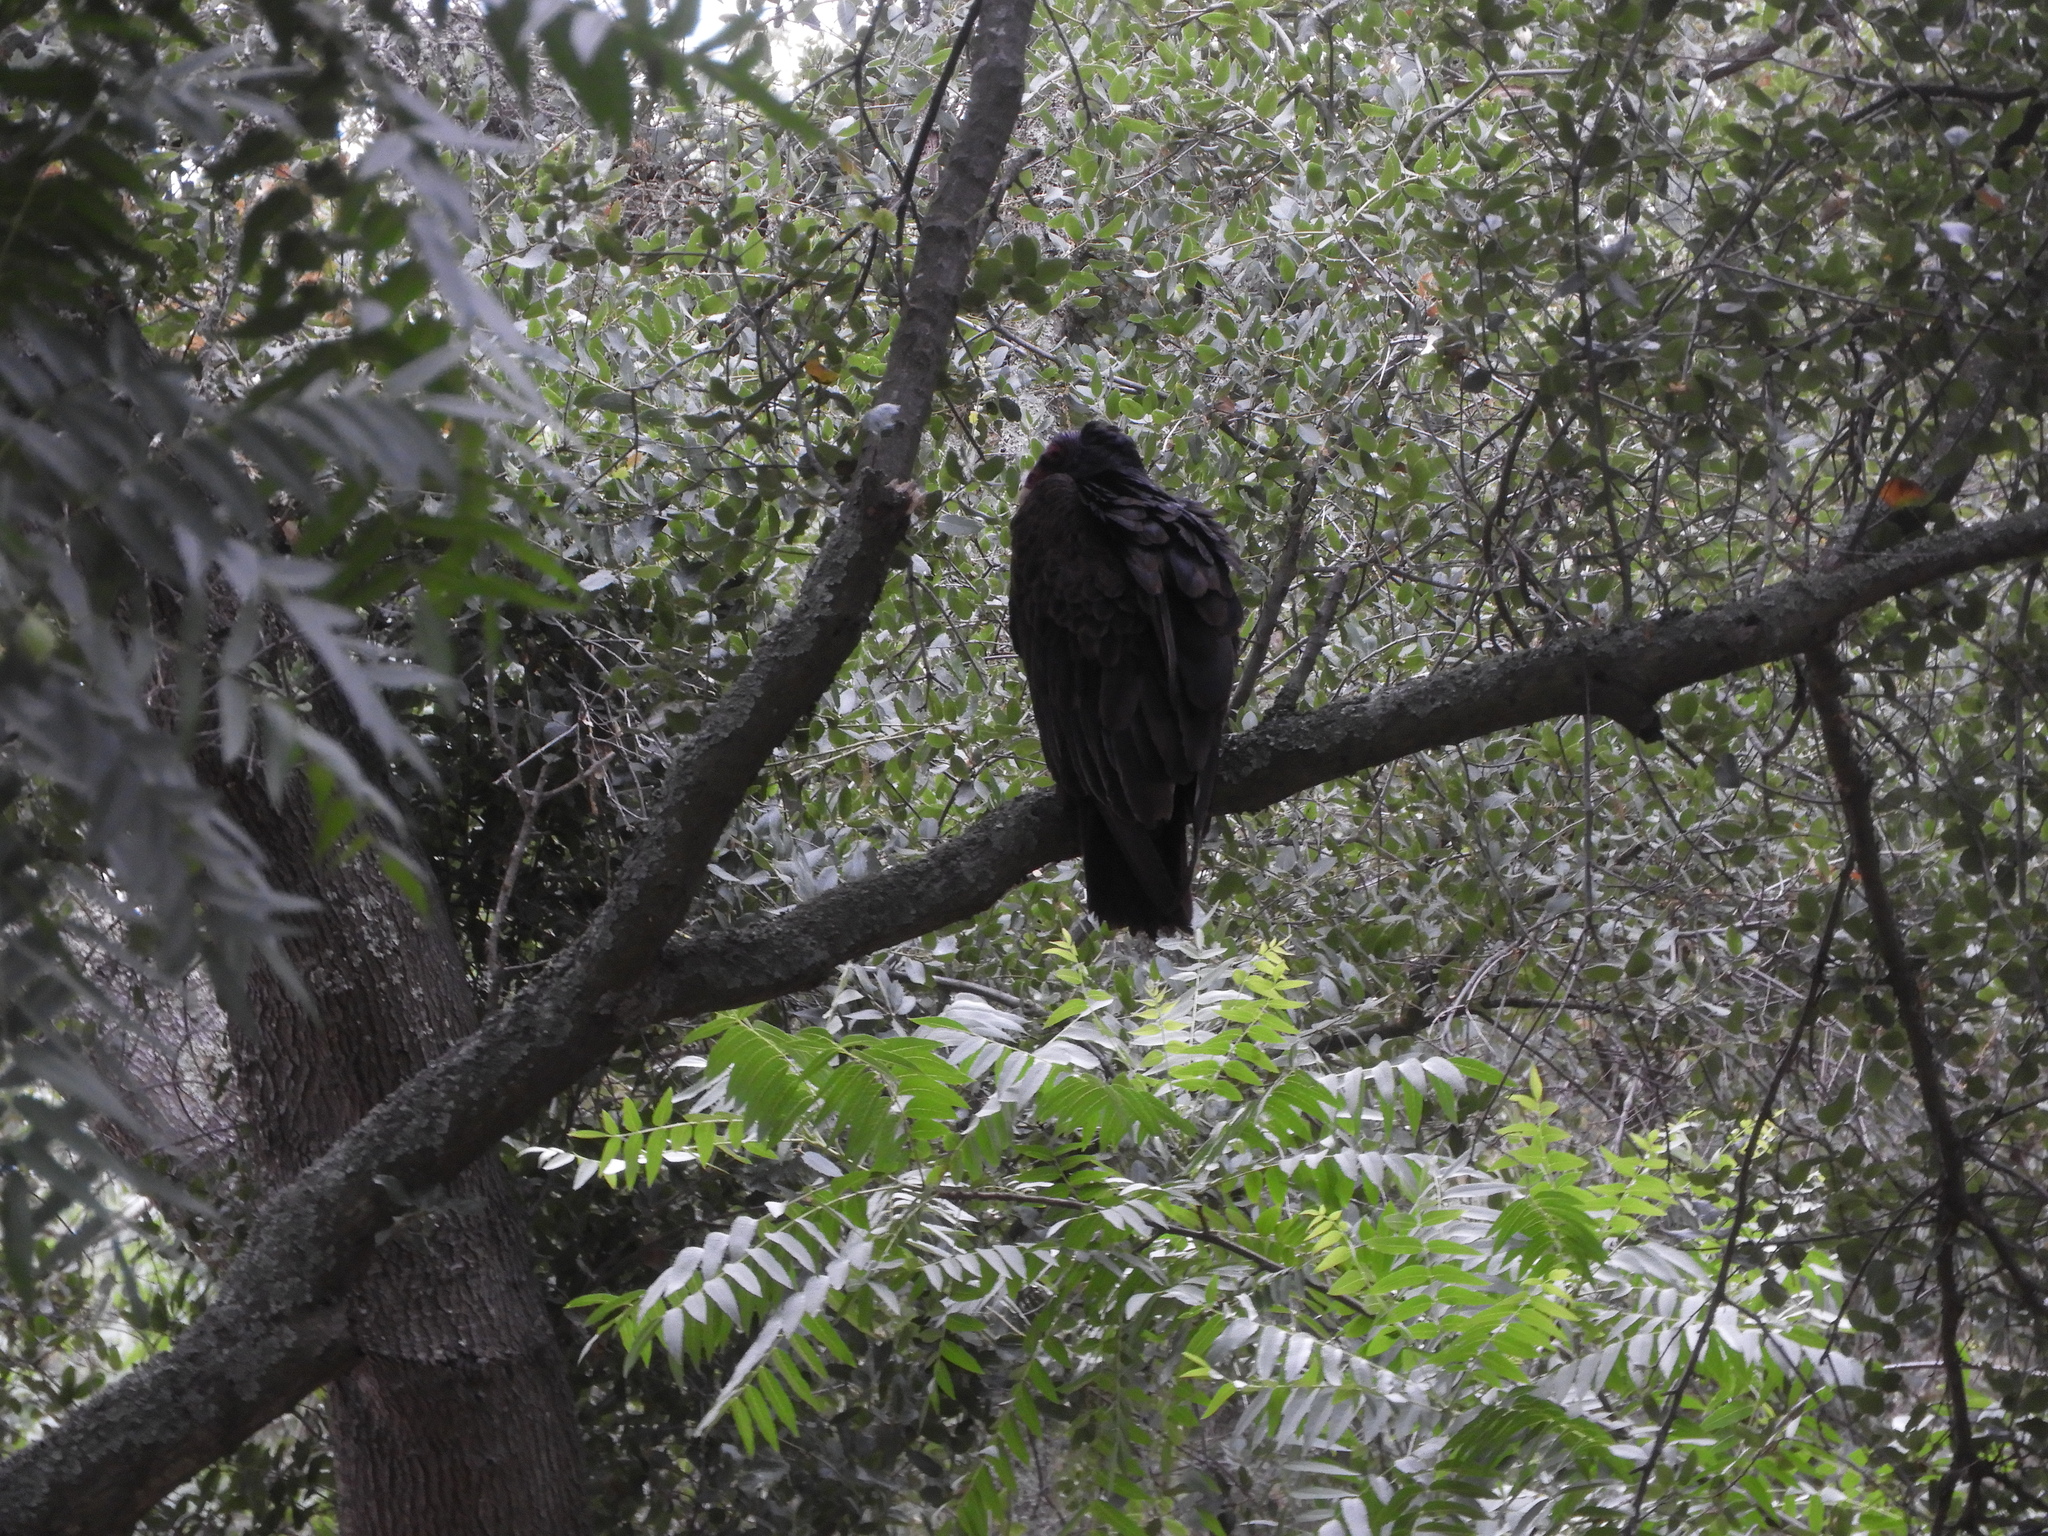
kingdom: Animalia
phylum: Chordata
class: Aves
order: Accipitriformes
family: Cathartidae
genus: Cathartes
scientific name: Cathartes aura
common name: Turkey vulture
